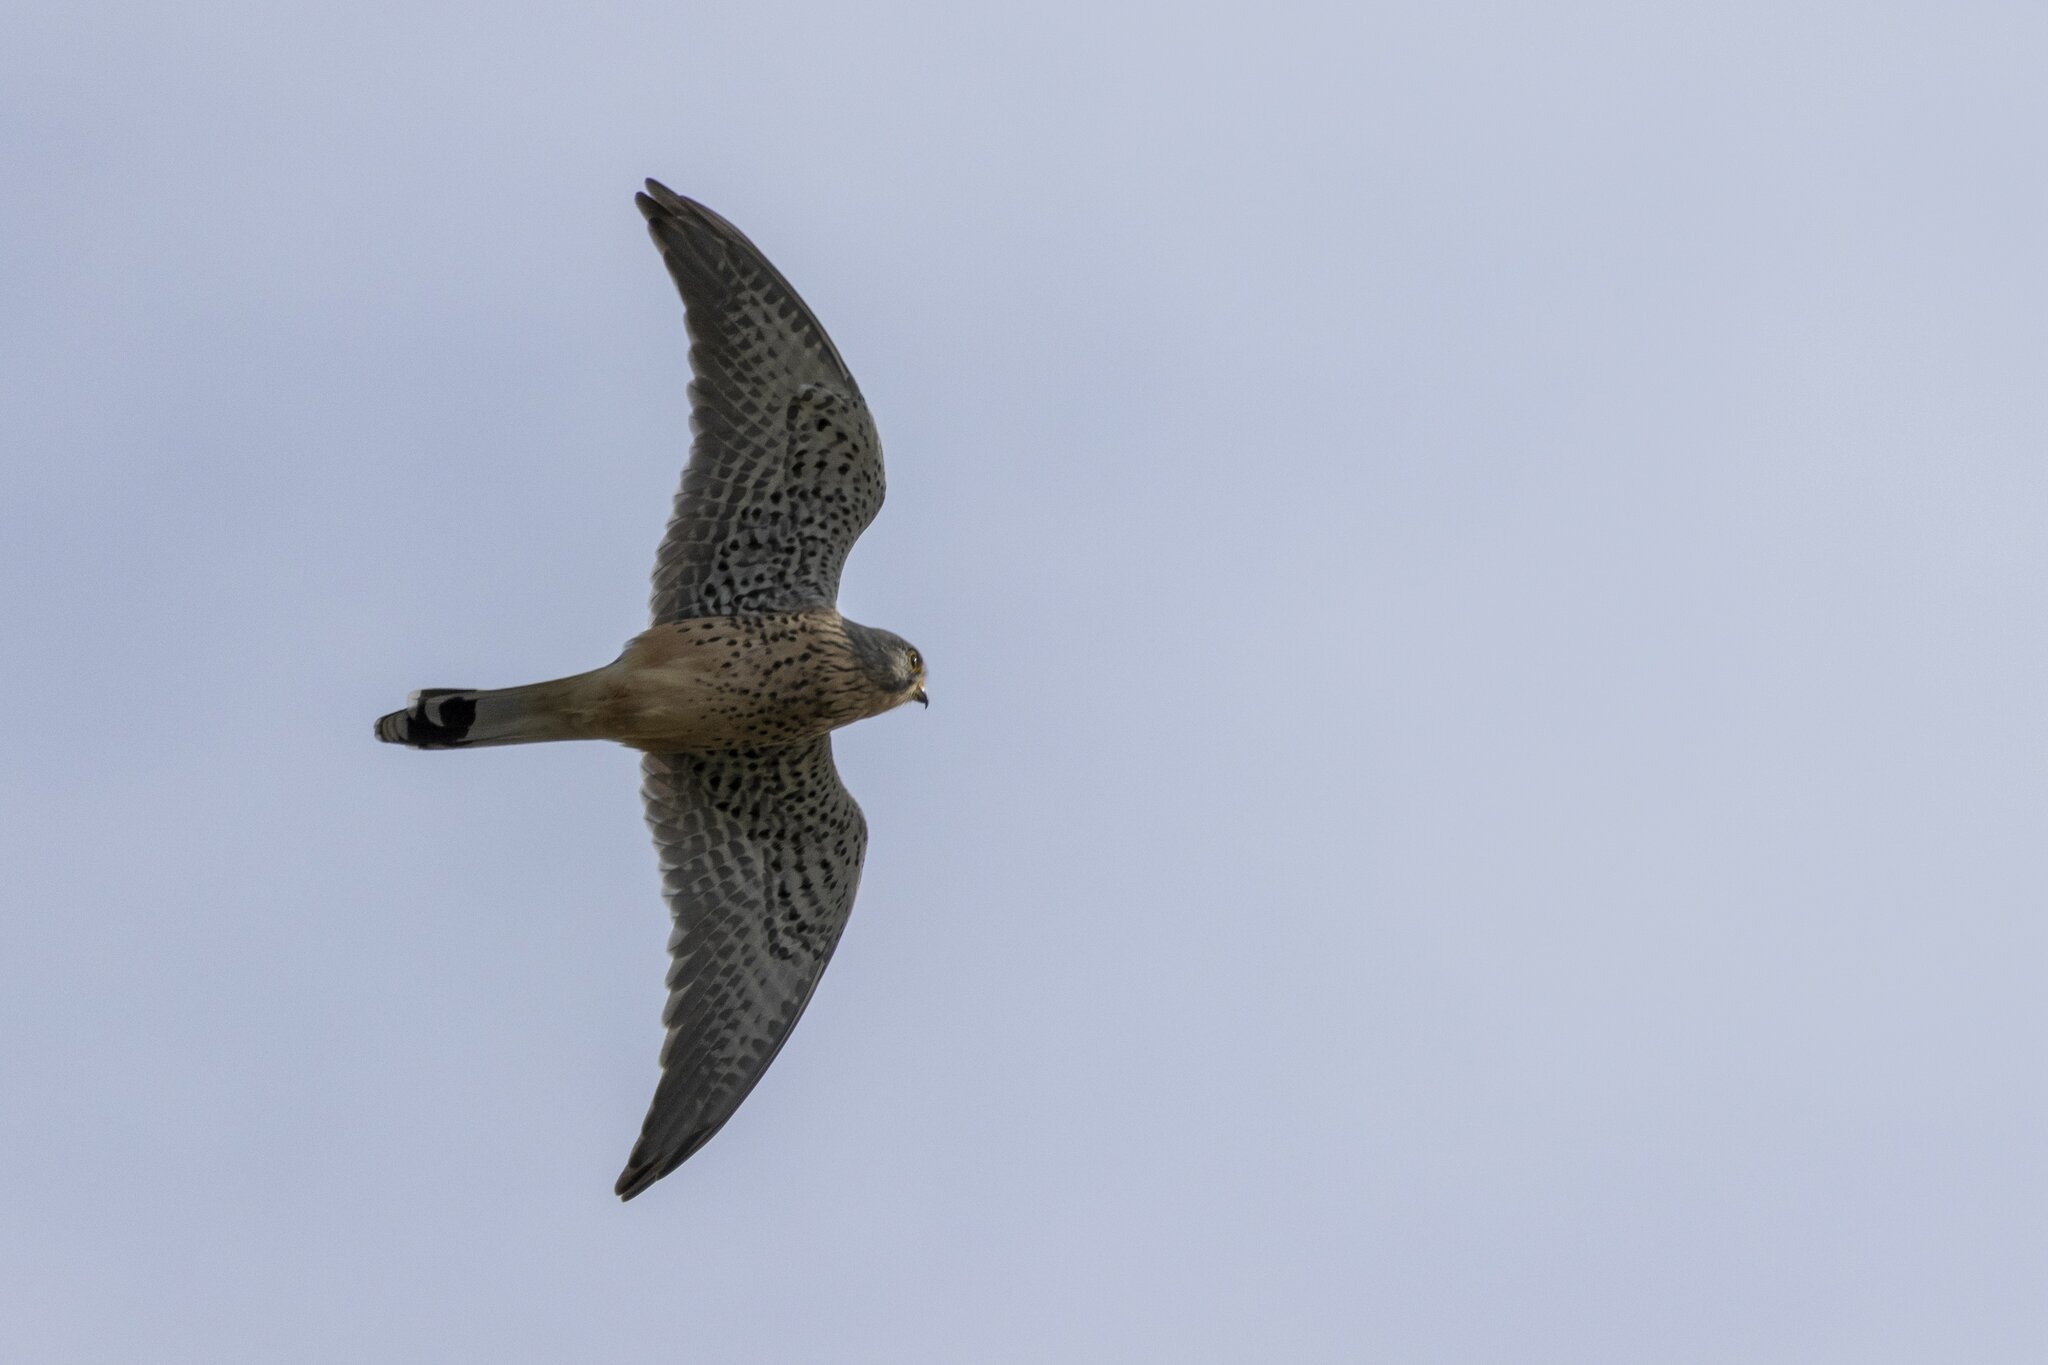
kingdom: Animalia
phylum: Chordata
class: Aves
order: Falconiformes
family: Falconidae
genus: Falco
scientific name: Falco tinnunculus
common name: Common kestrel
